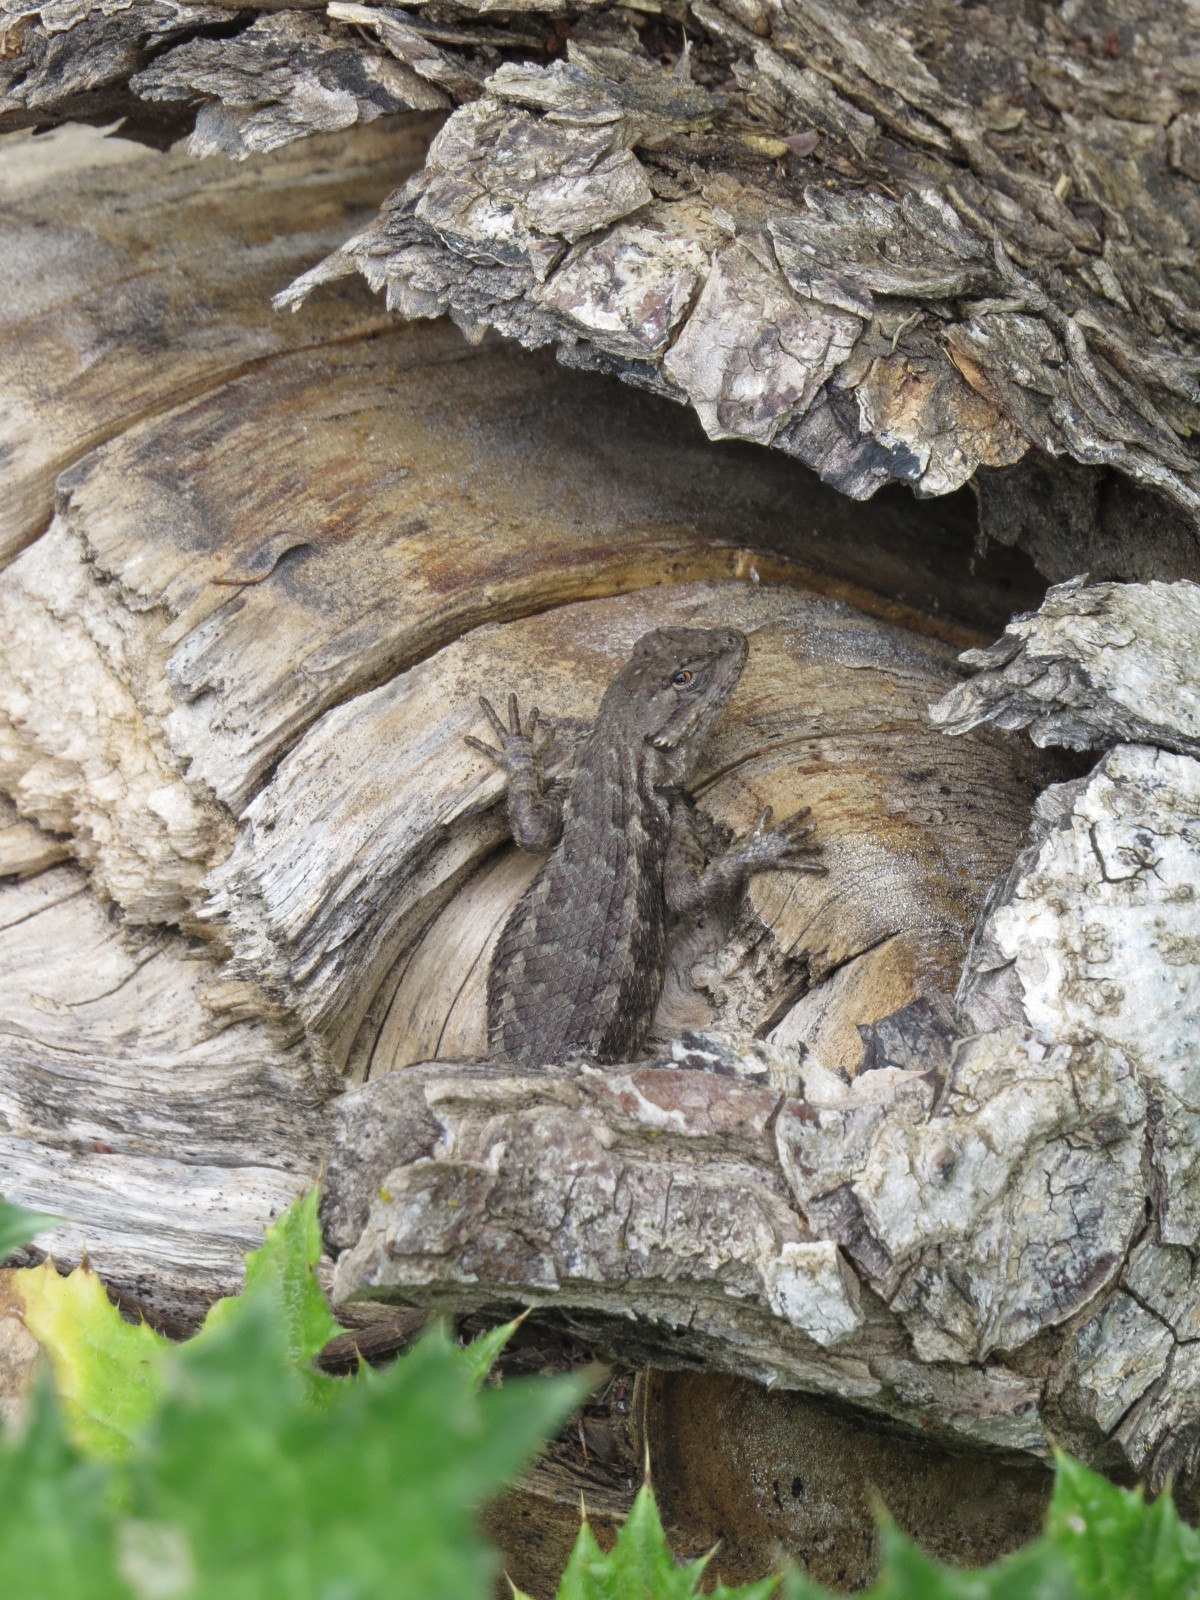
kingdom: Animalia
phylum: Chordata
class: Squamata
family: Phrynosomatidae
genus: Sceloporus
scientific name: Sceloporus occidentalis
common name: Western fence lizard
